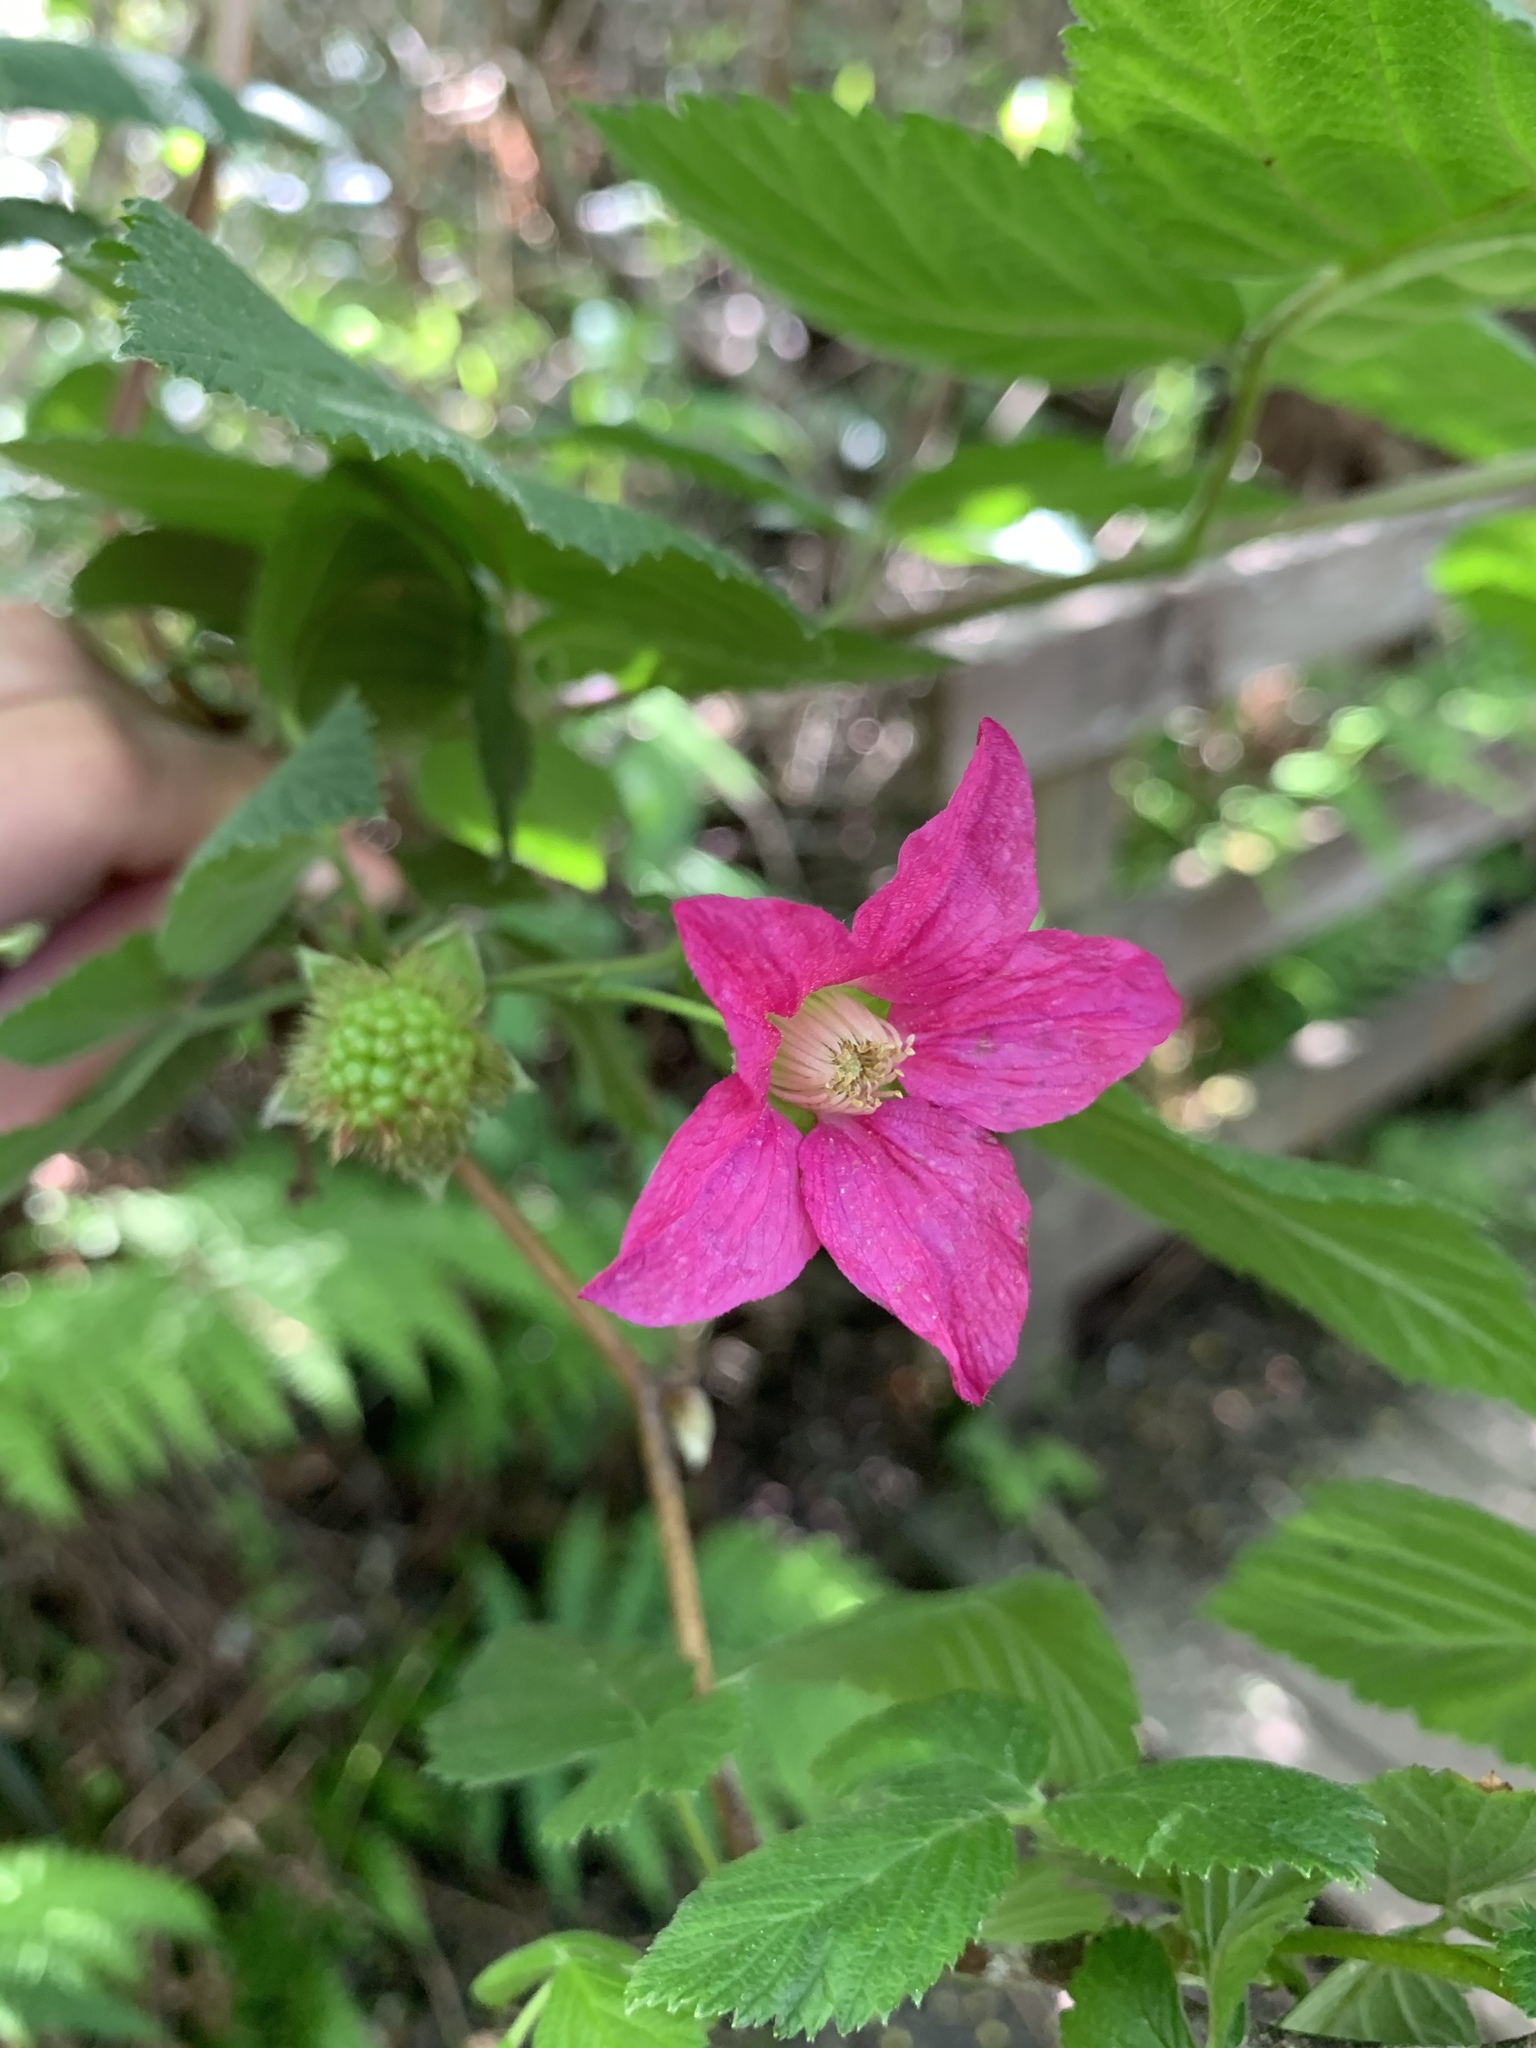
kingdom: Plantae
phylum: Tracheophyta
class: Magnoliopsida
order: Rosales
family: Rosaceae
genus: Rubus
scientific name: Rubus spectabilis
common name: Salmonberry
